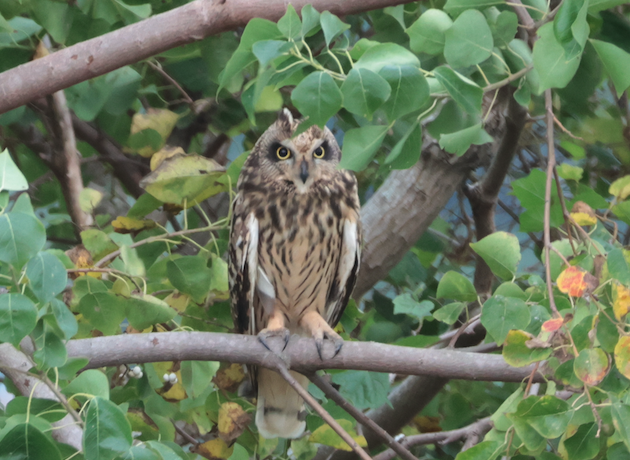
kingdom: Animalia
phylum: Chordata
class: Aves
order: Strigiformes
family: Strigidae
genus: Asio
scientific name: Asio flammeus
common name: Short-eared owl
